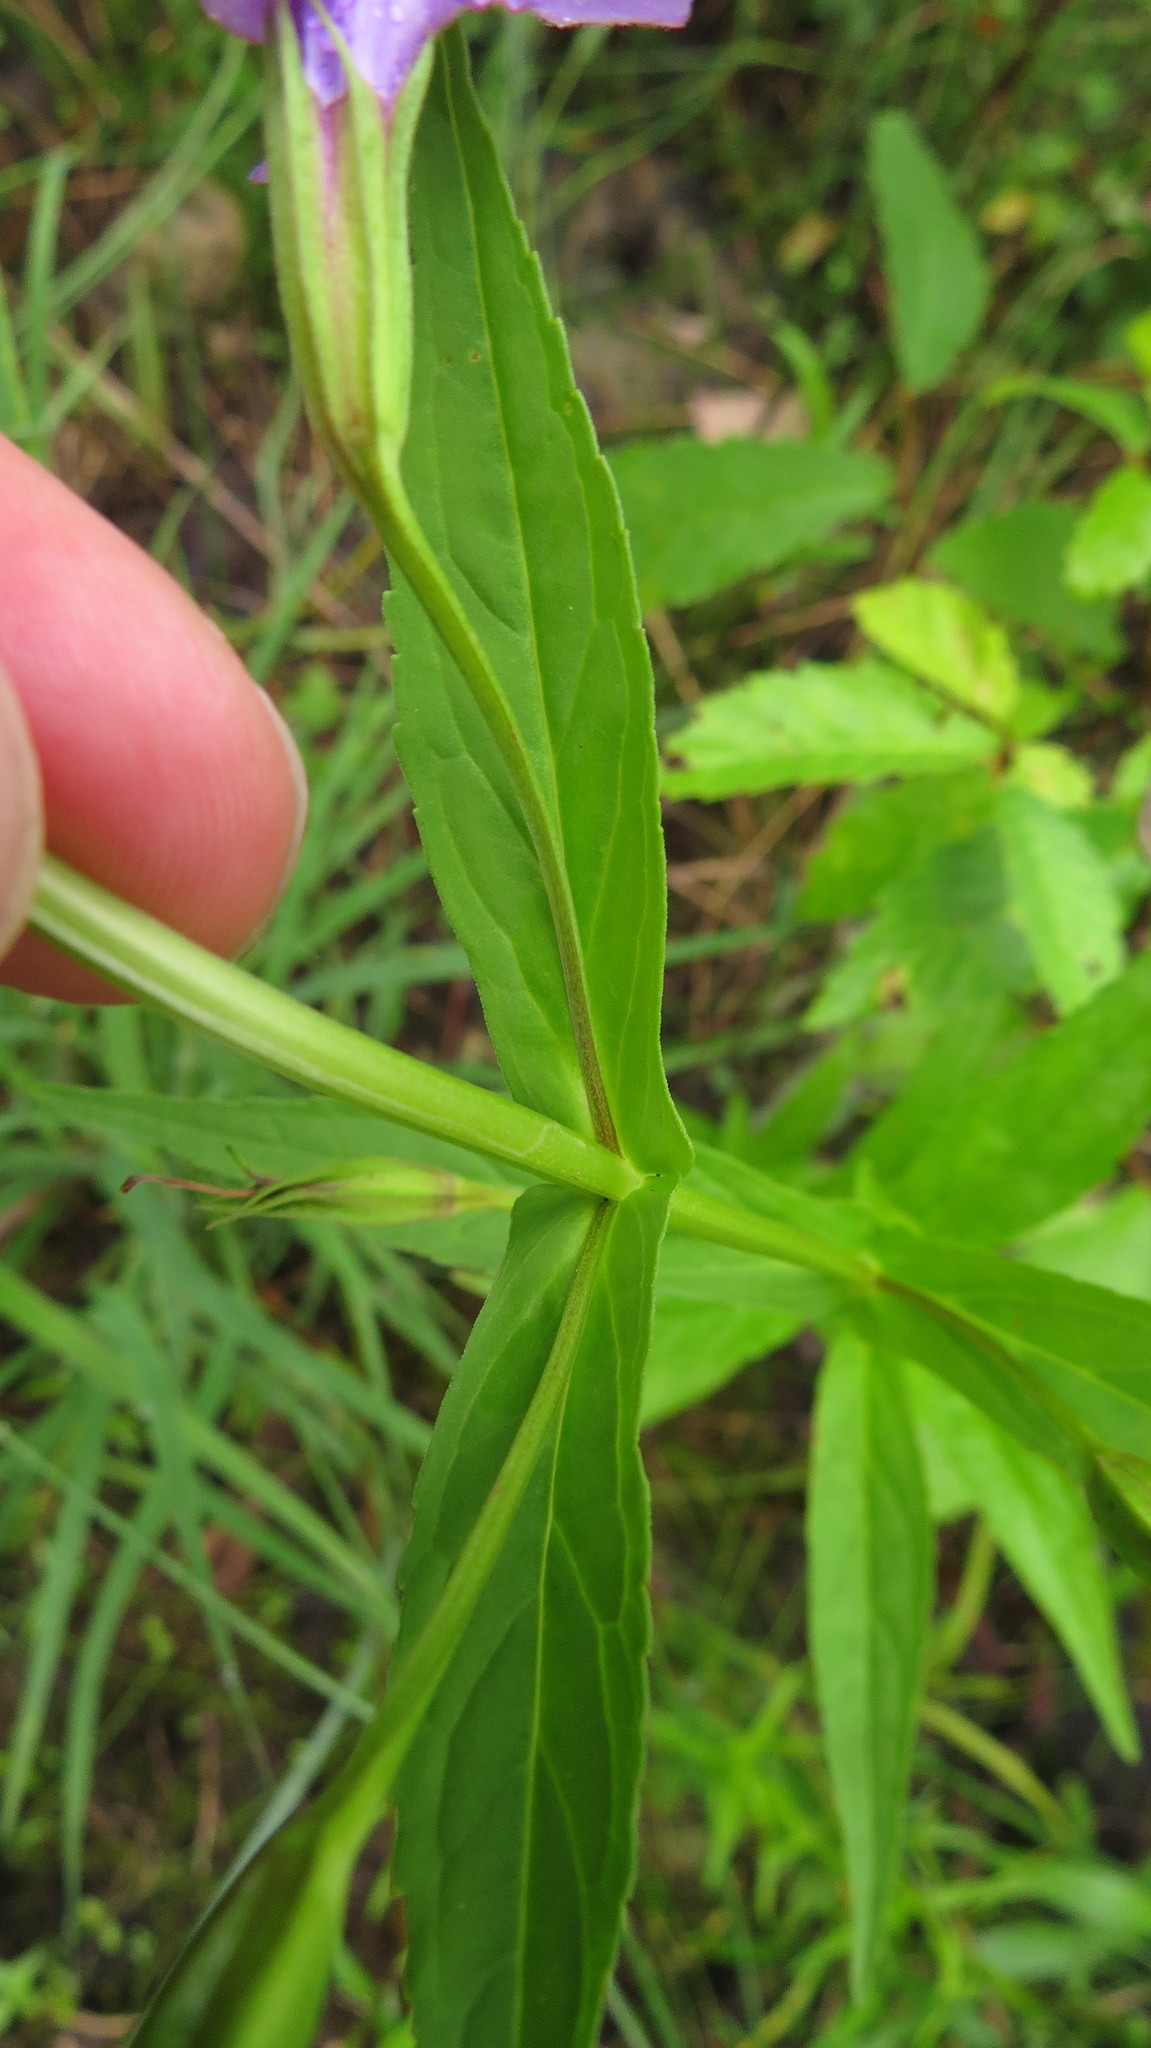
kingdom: Plantae
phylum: Tracheophyta
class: Magnoliopsida
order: Lamiales
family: Phrymaceae
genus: Mimulus
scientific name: Mimulus ringens
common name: Allegheny monkeyflower
